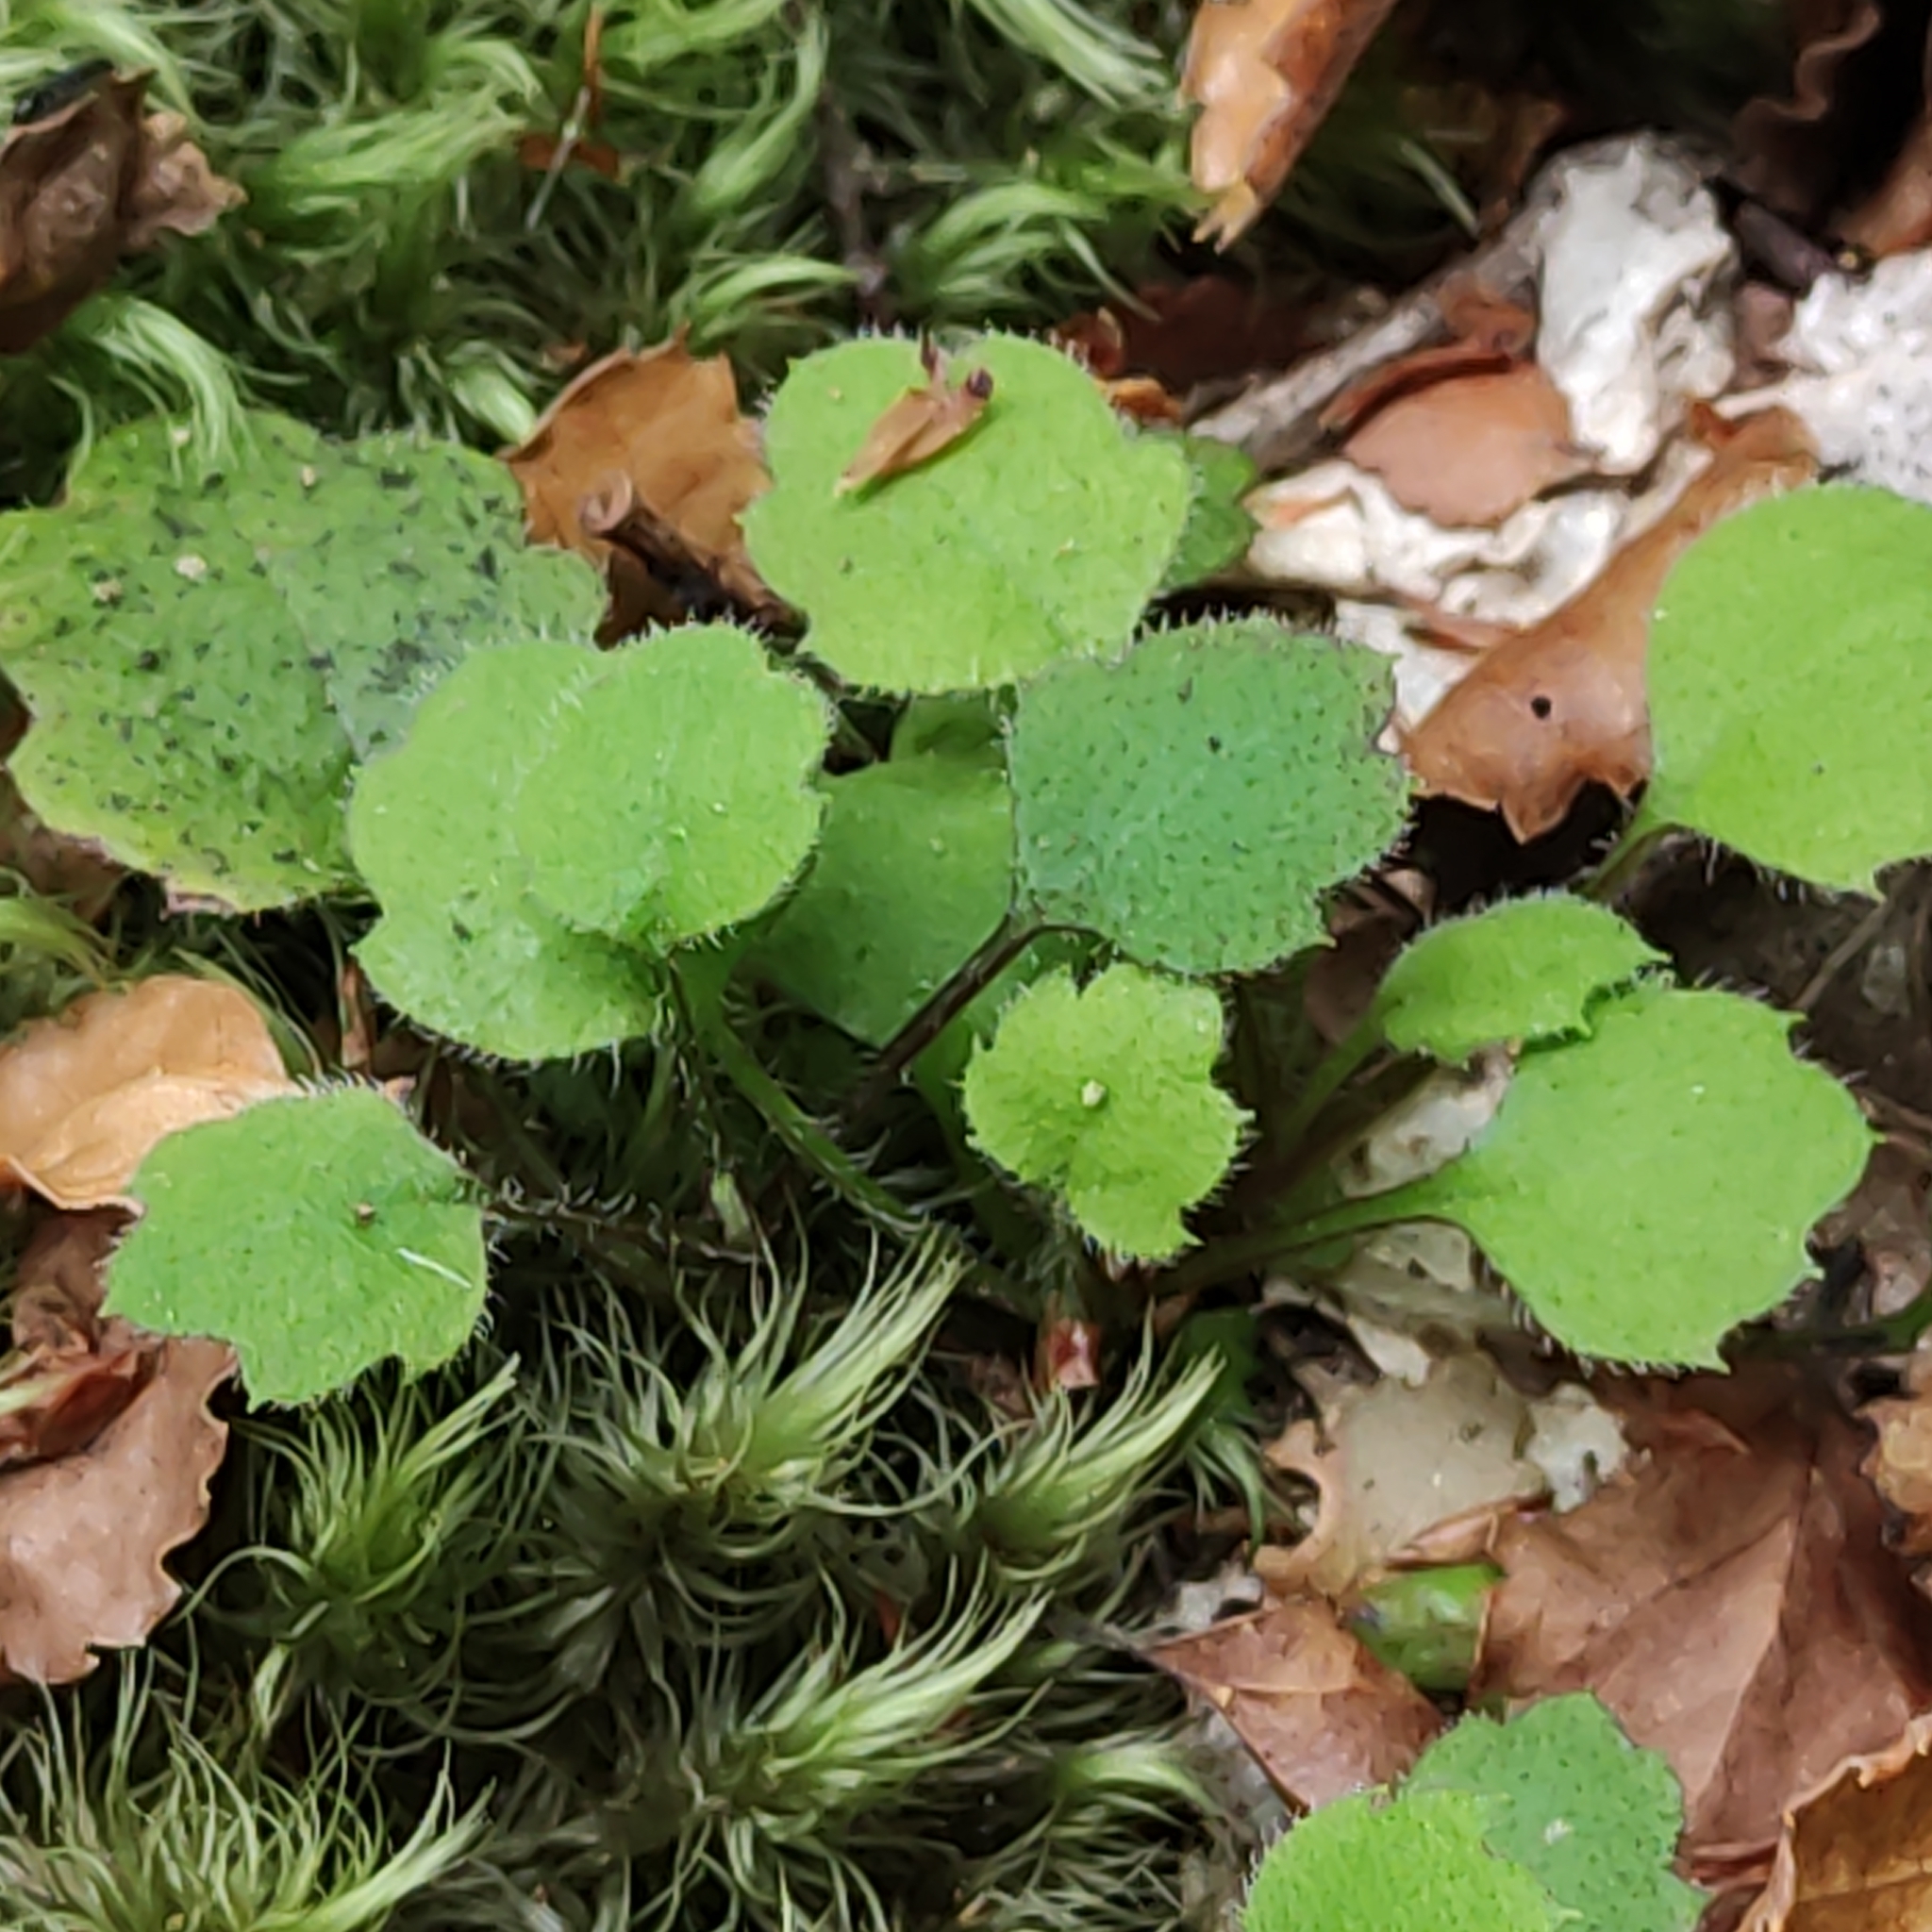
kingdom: Plantae
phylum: Tracheophyta
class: Magnoliopsida
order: Asterales
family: Asteraceae
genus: Lagenophora
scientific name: Lagenophora strangulata
